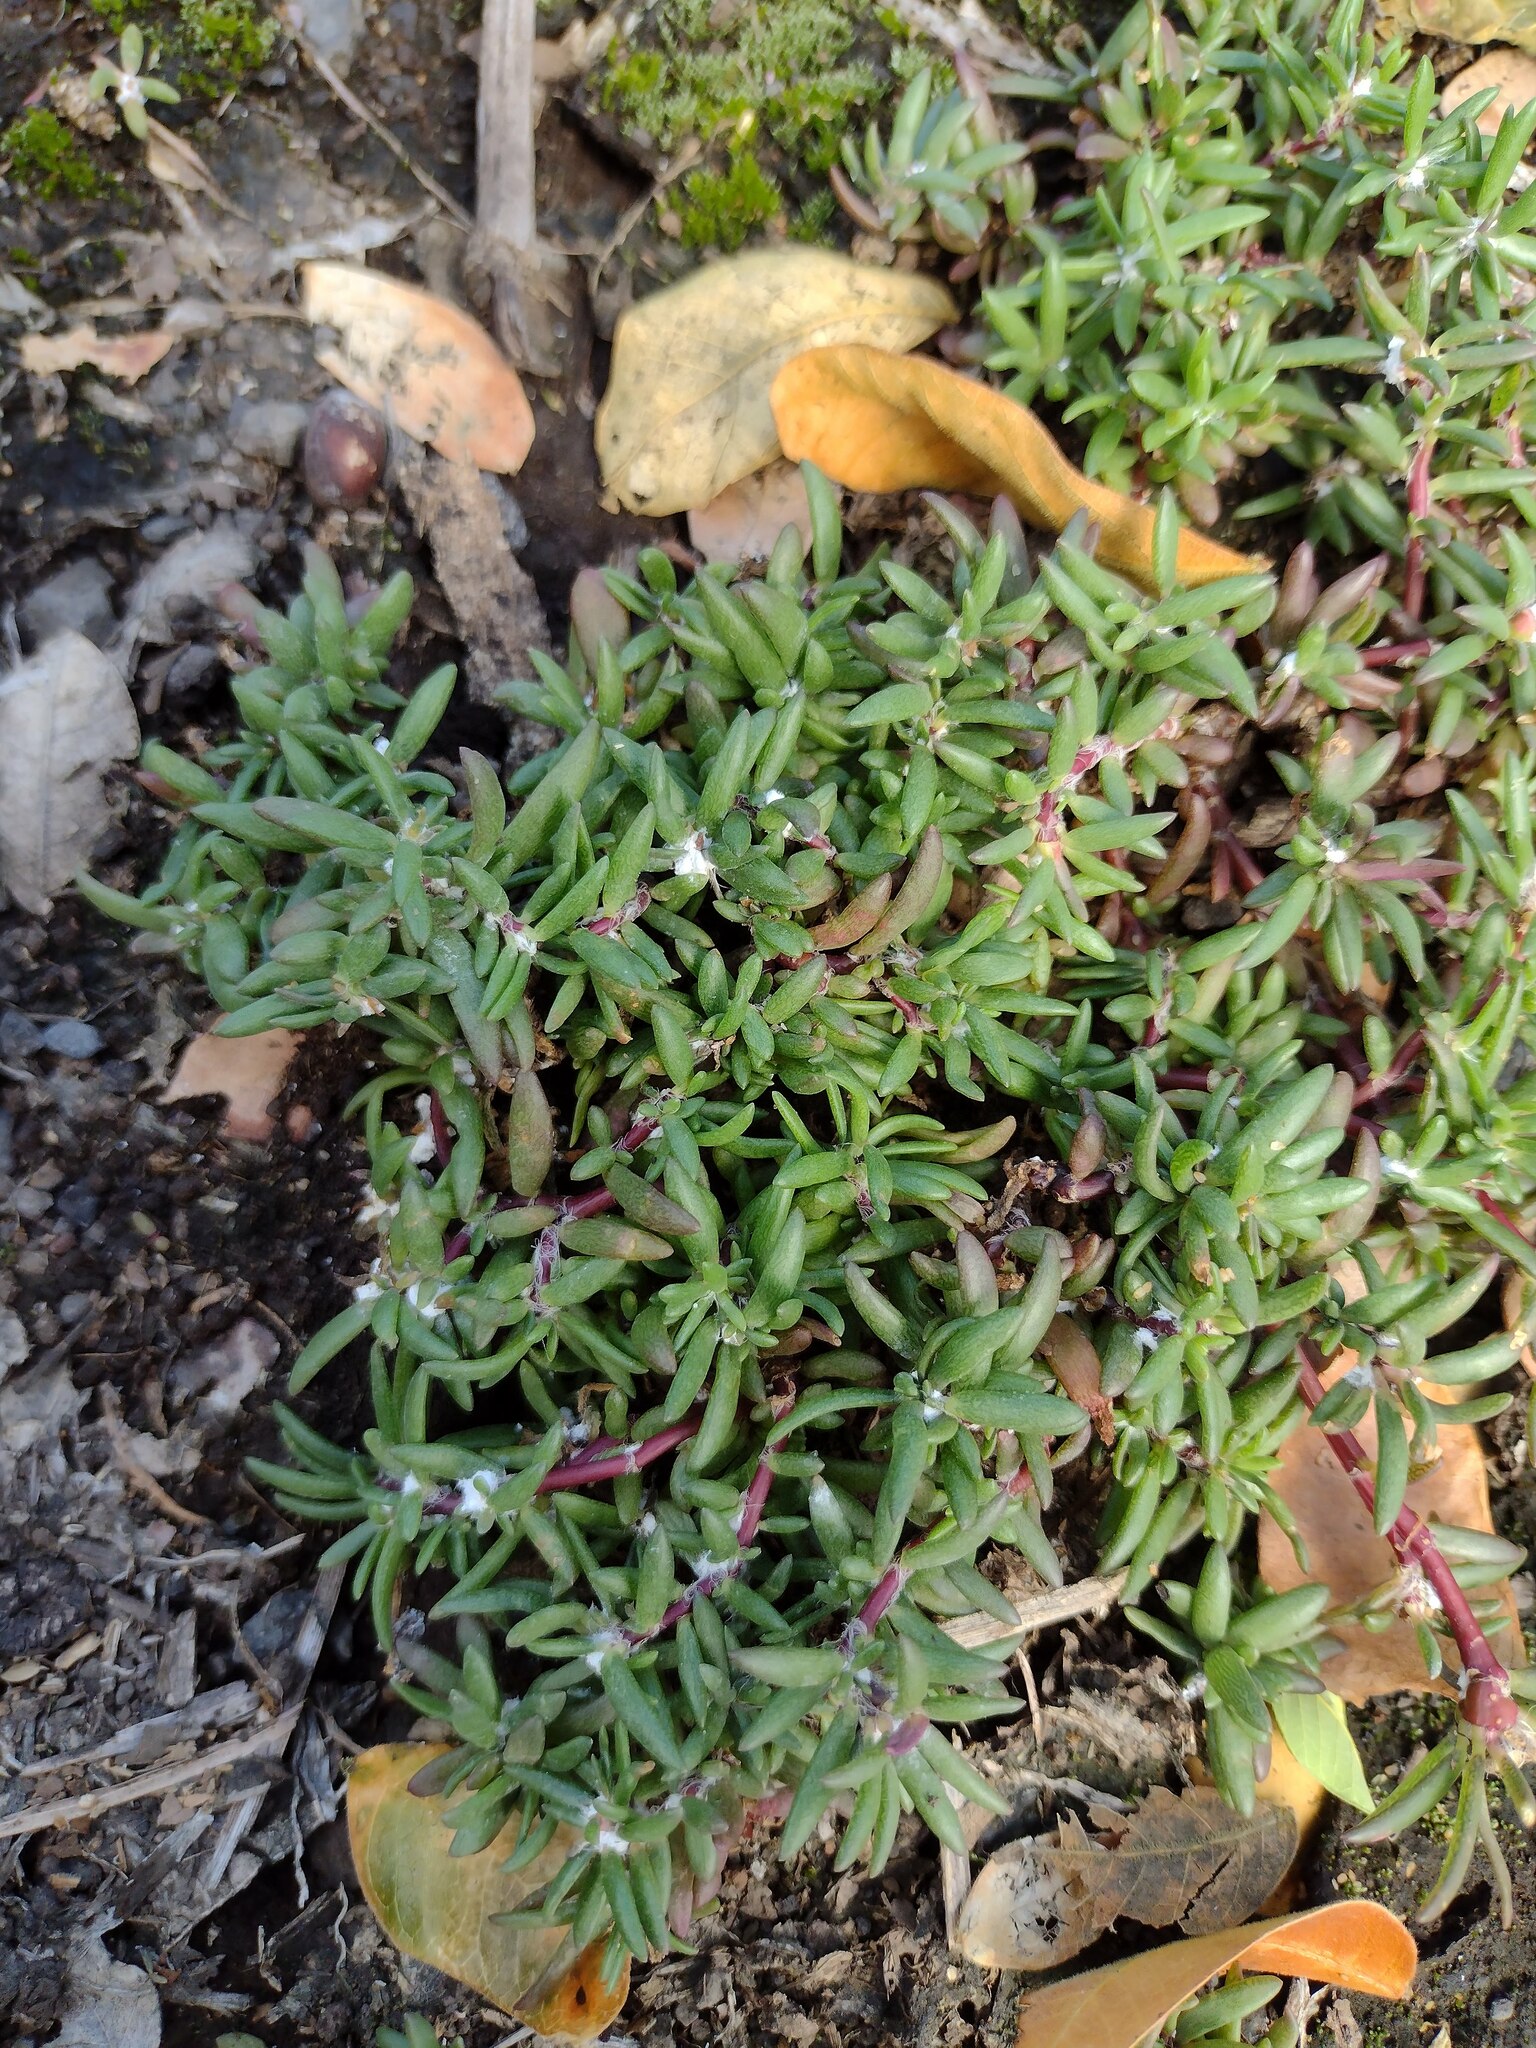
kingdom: Plantae
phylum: Tracheophyta
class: Magnoliopsida
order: Caryophyllales
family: Portulacaceae
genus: Portulaca
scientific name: Portulaca pilosa
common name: Kiss me quick
